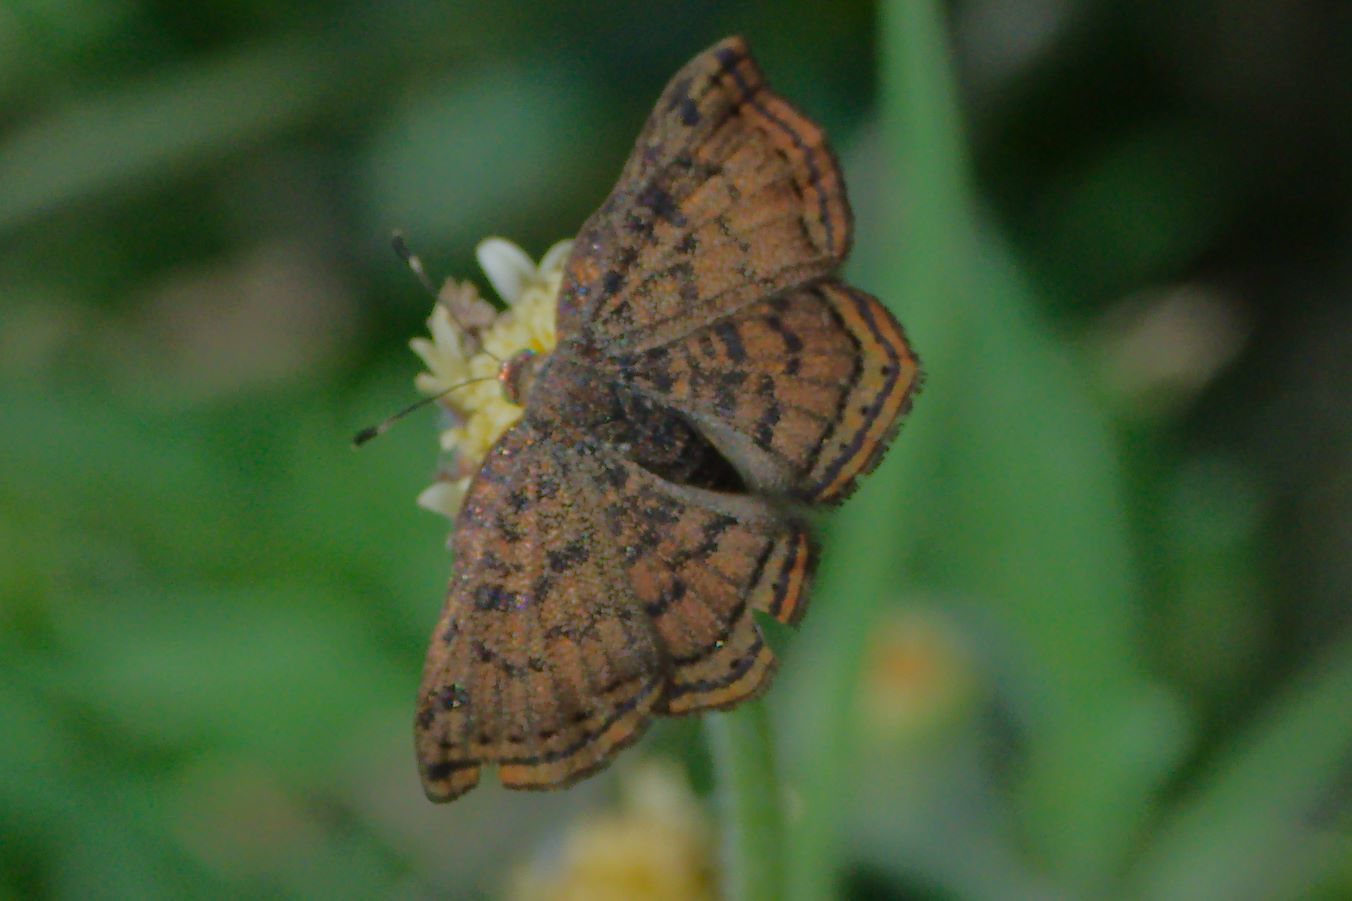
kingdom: Animalia
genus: Caria
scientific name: Caria ino
